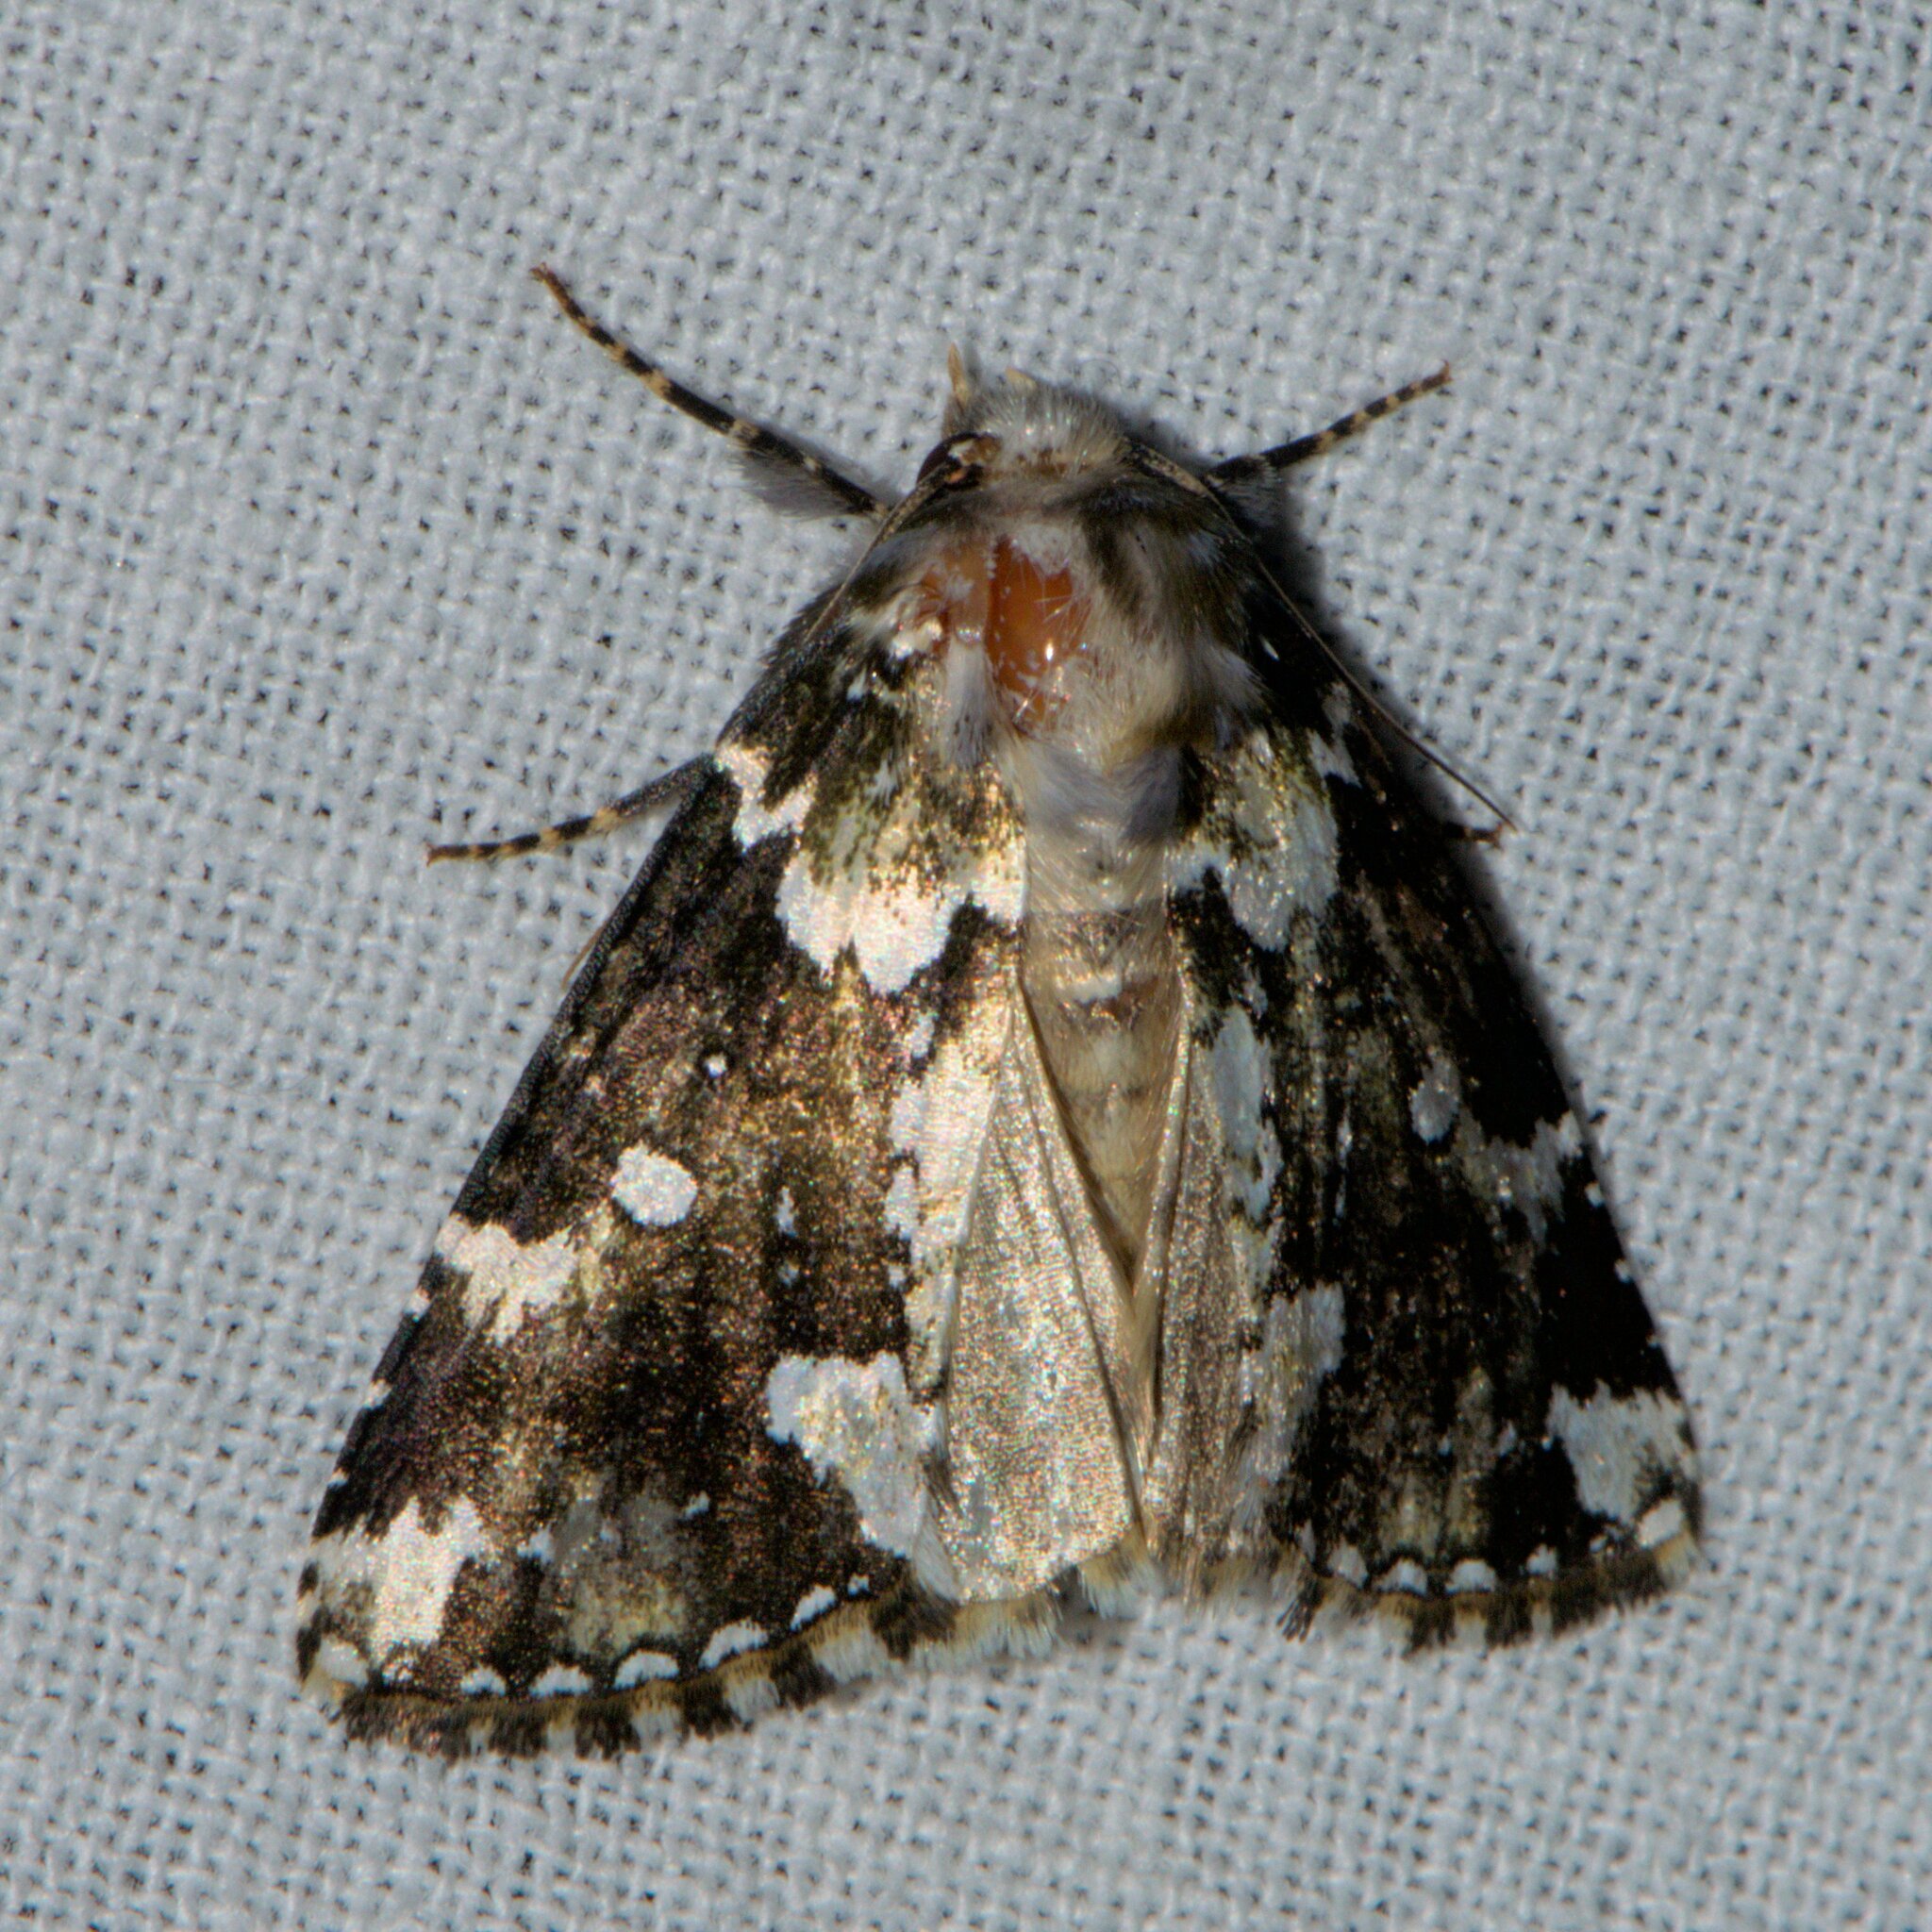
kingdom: Animalia
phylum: Arthropoda
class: Insecta
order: Lepidoptera
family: Drepanidae
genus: Gaurena
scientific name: Gaurena florens
